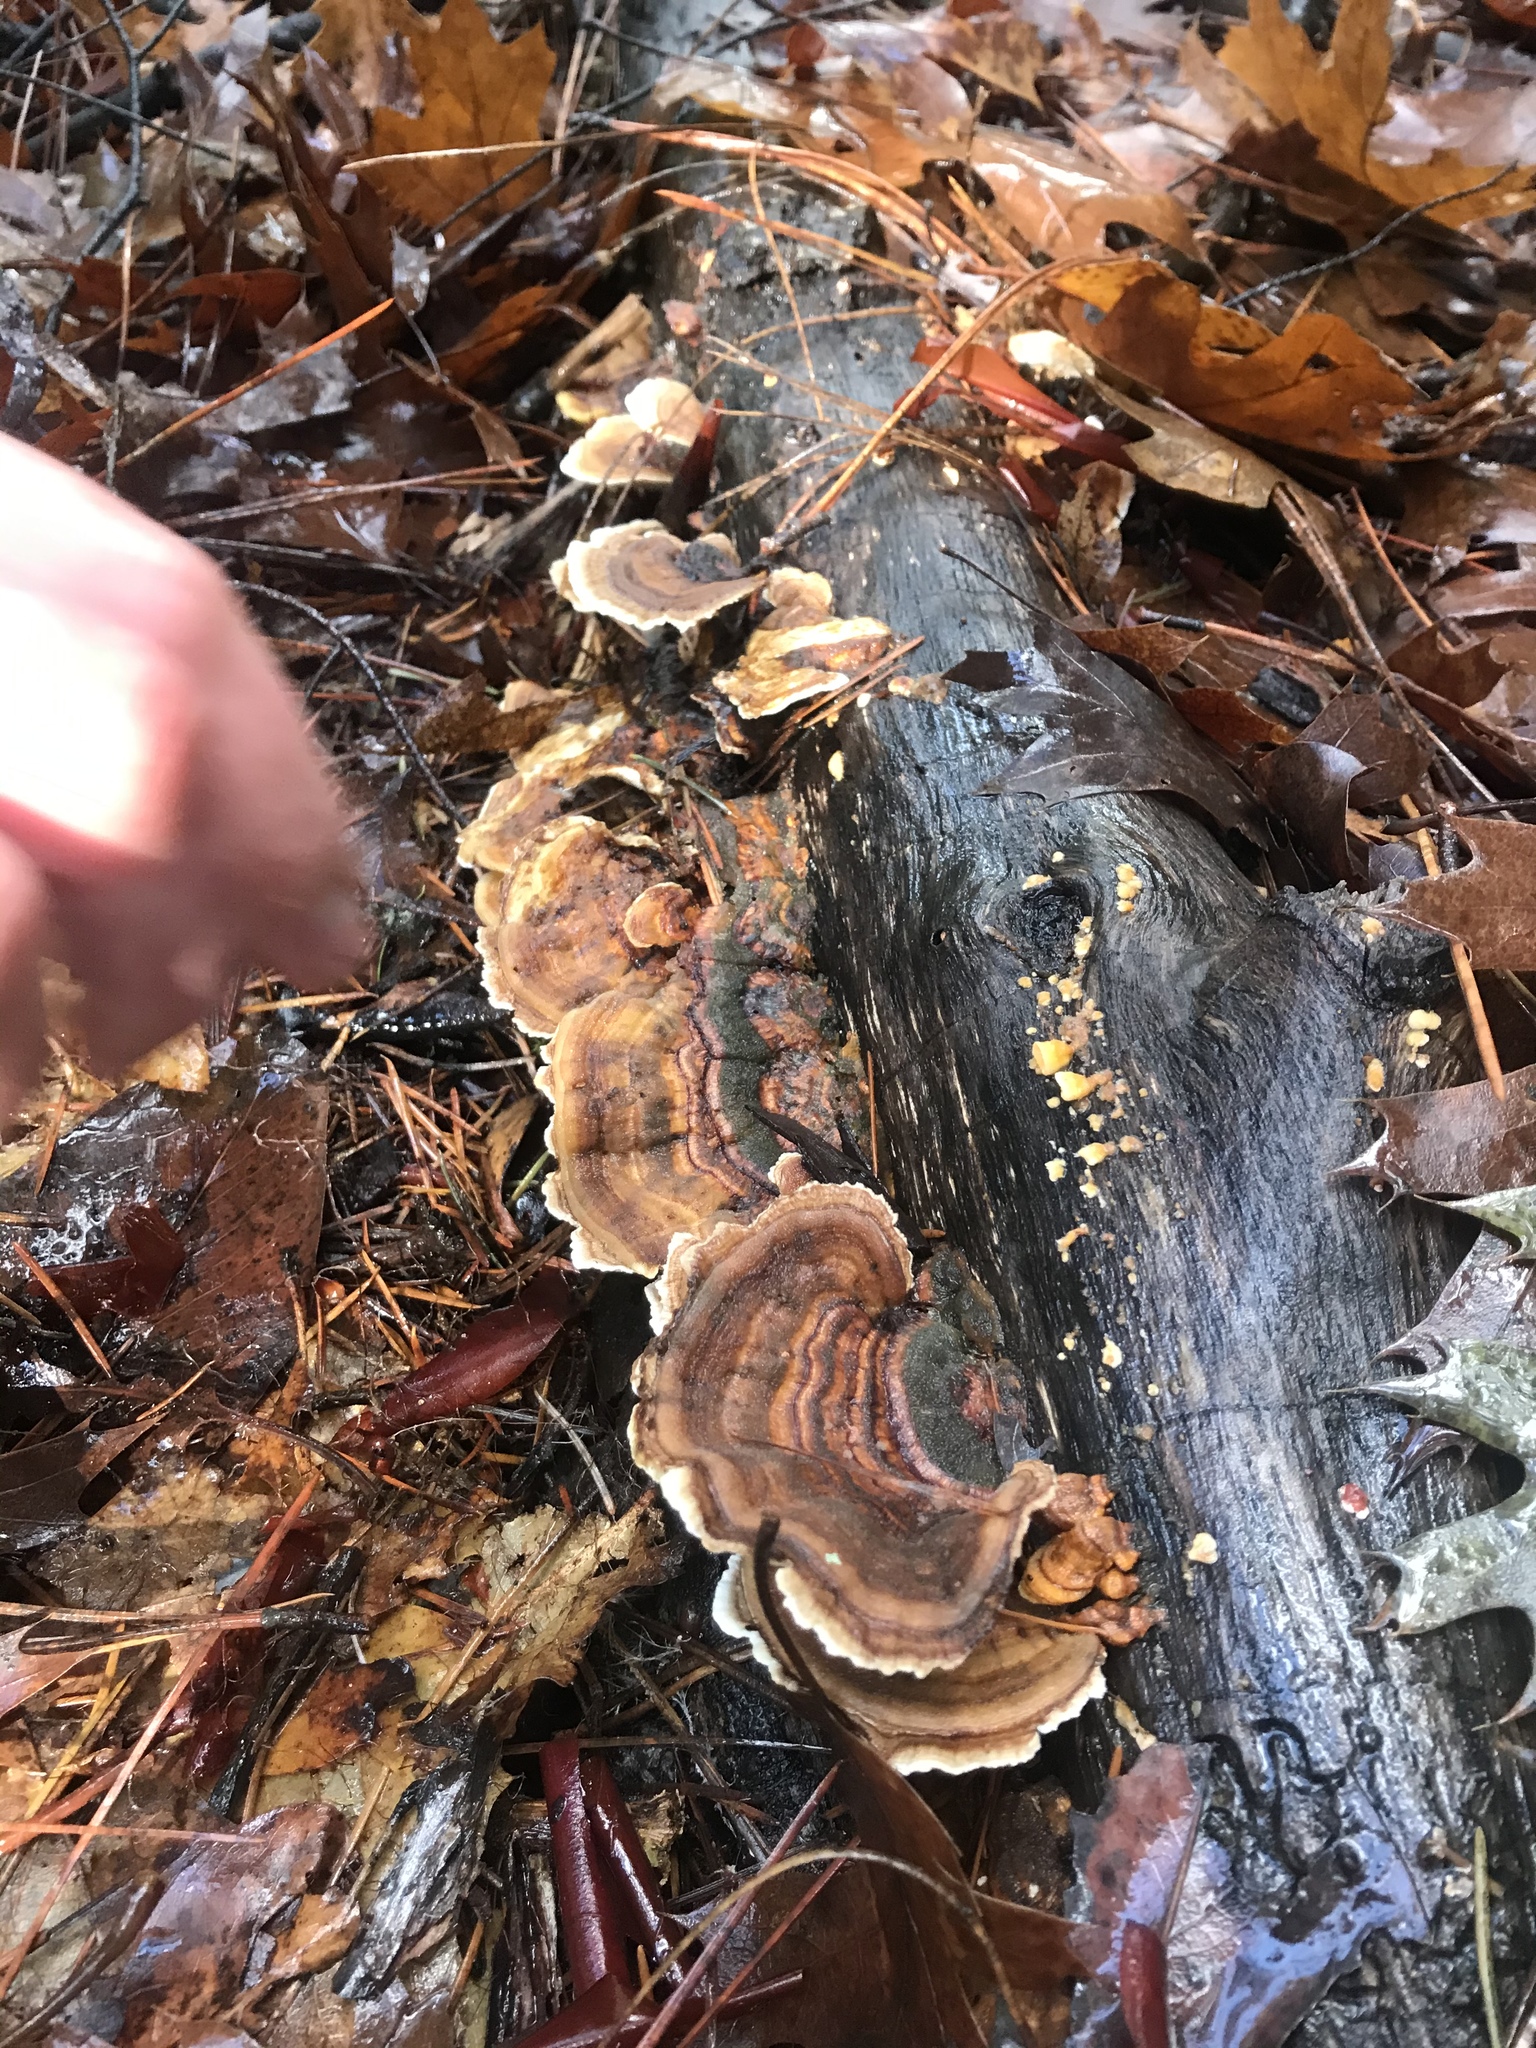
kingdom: Fungi
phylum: Basidiomycota
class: Agaricomycetes
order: Polyporales
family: Polyporaceae
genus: Trametes
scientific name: Trametes versicolor
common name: Turkeytail
